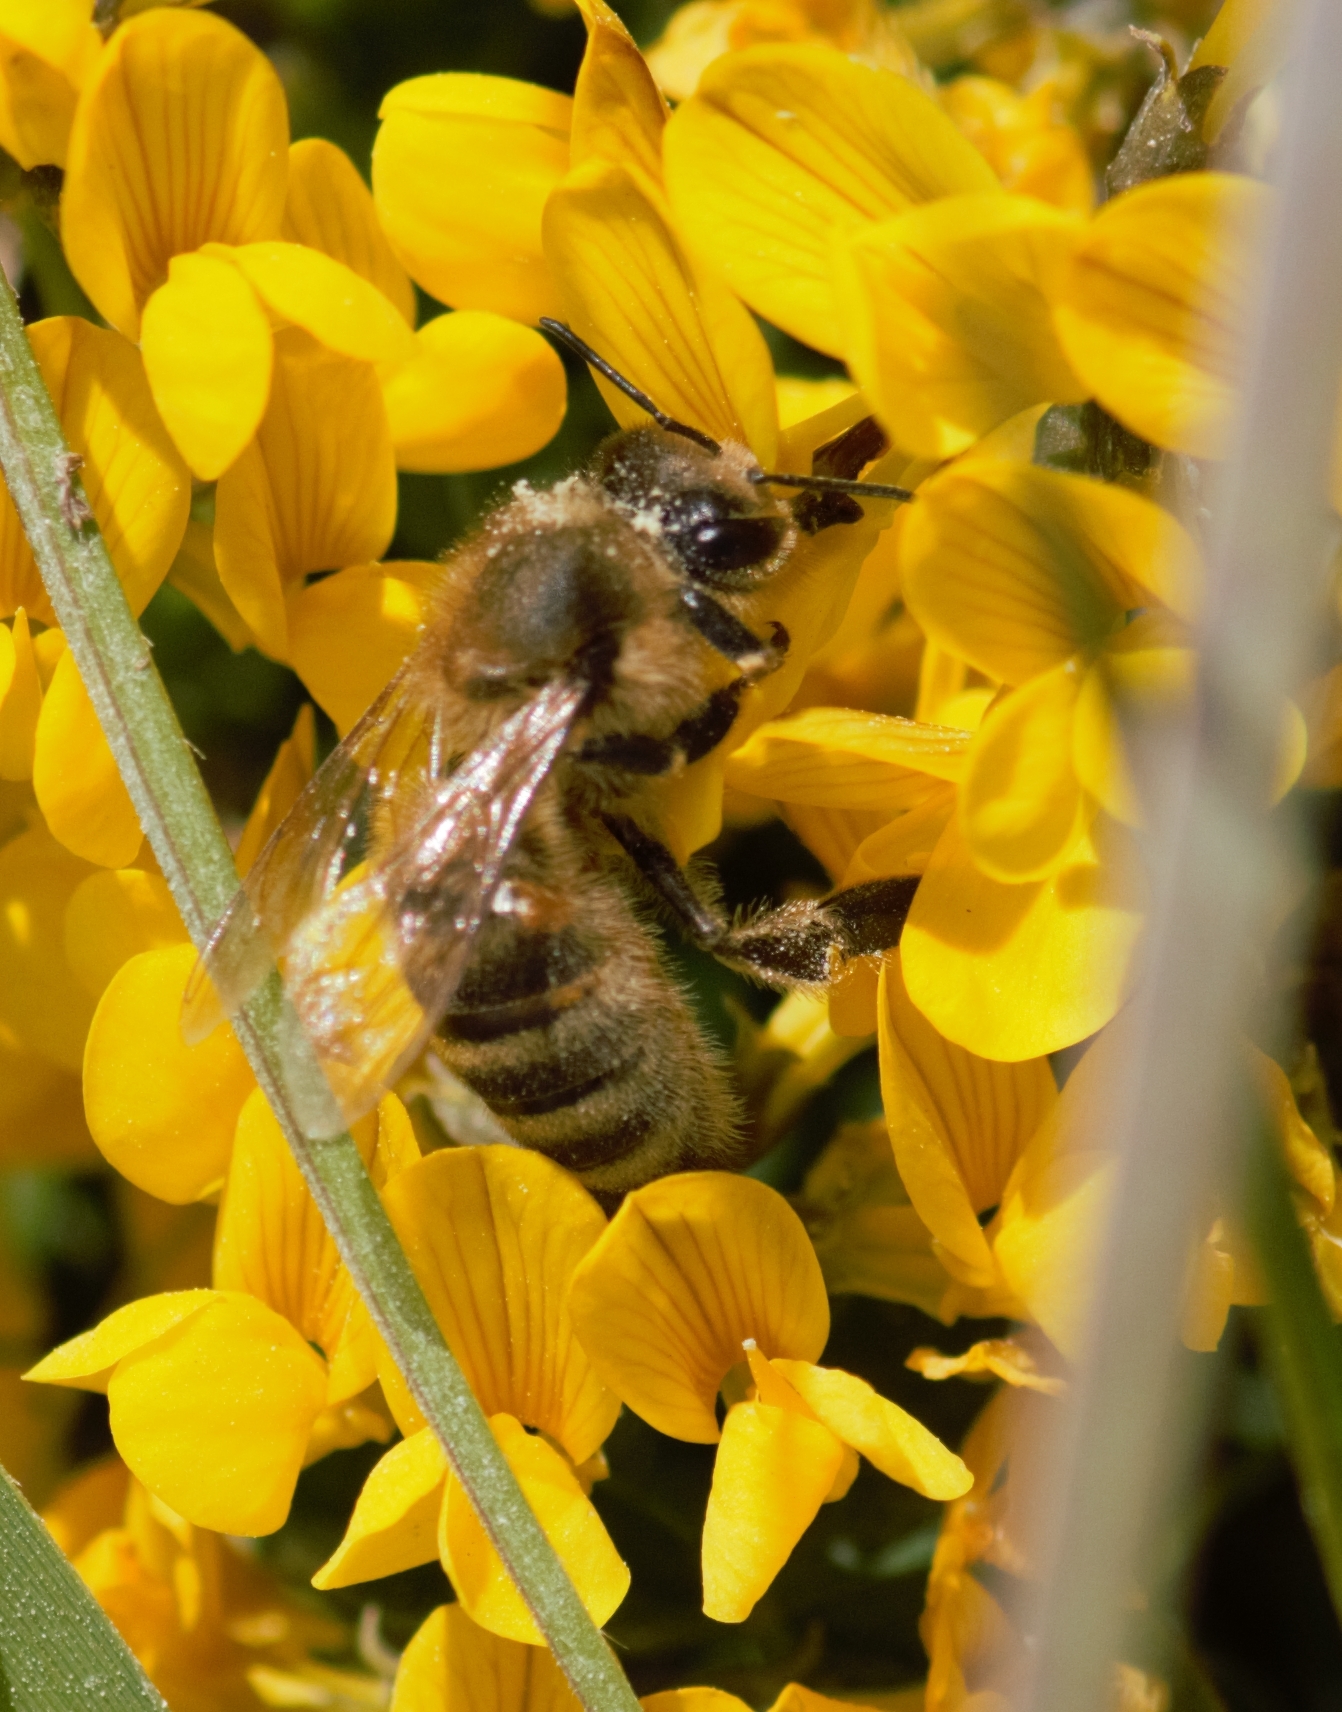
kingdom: Animalia
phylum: Arthropoda
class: Insecta
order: Hymenoptera
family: Apidae
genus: Apis
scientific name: Apis mellifera
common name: Honey bee
